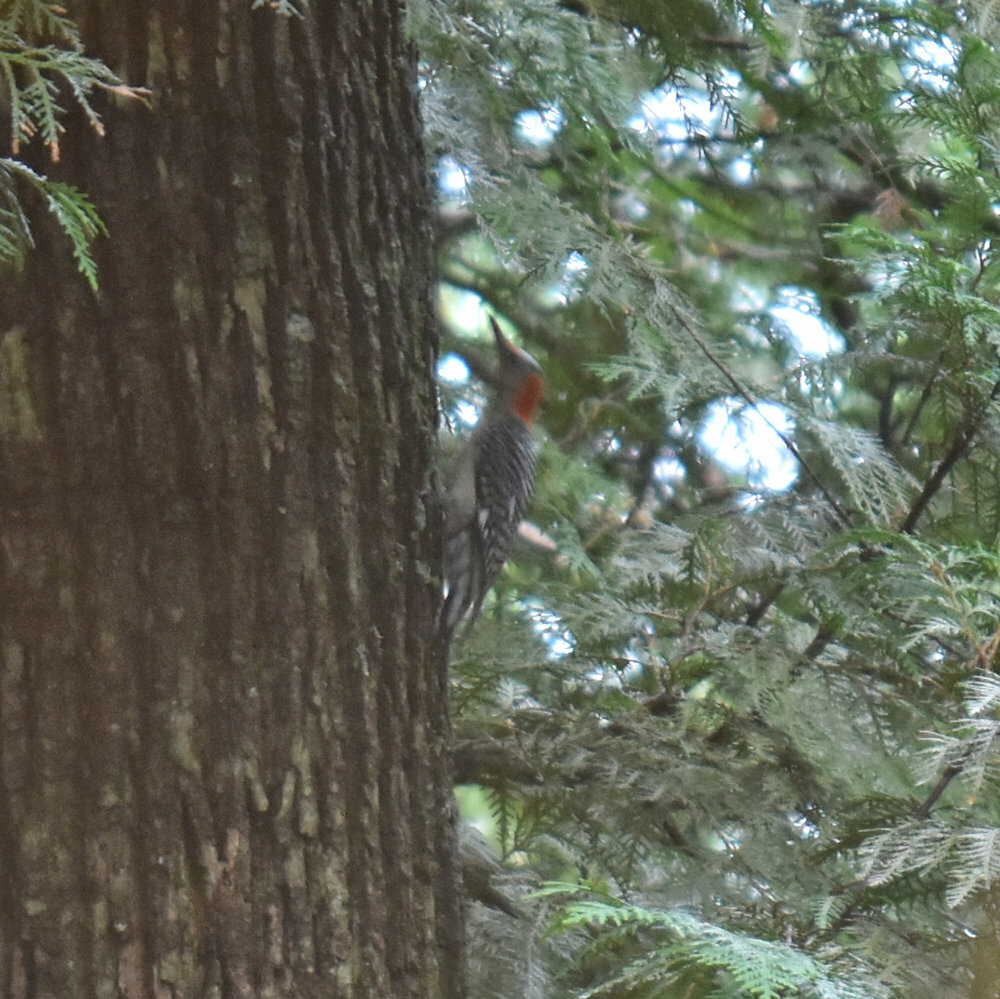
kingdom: Animalia
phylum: Chordata
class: Aves
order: Piciformes
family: Picidae
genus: Melanerpes
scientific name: Melanerpes carolinus
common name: Red-bellied woodpecker
